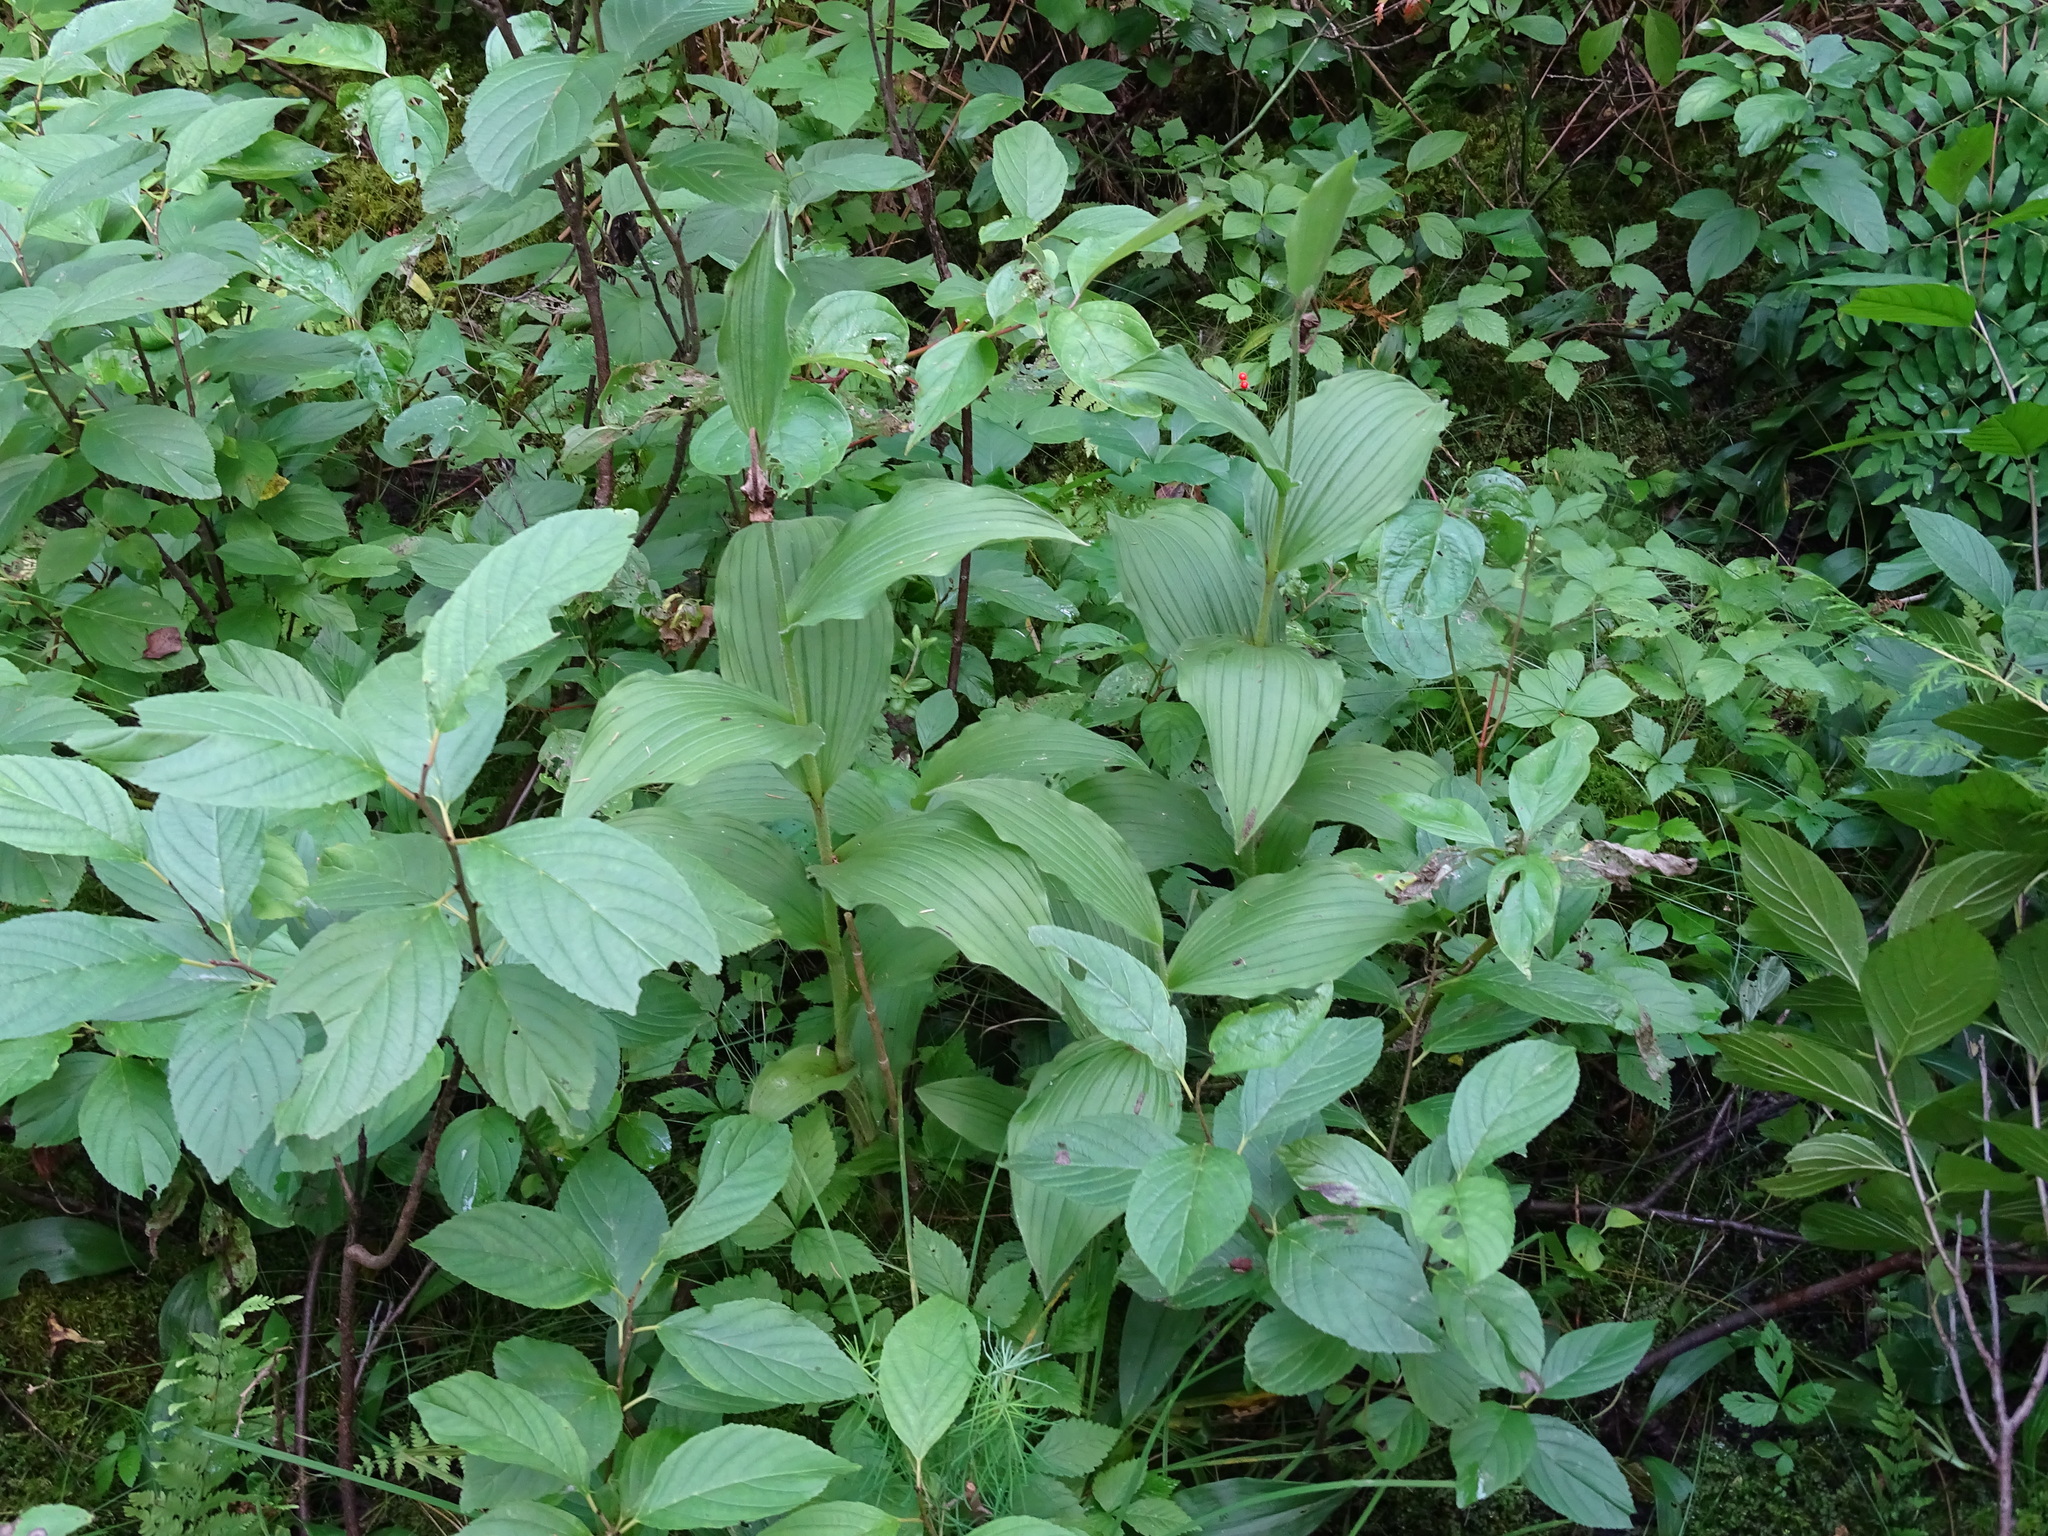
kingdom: Plantae
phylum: Tracheophyta
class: Liliopsida
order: Asparagales
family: Orchidaceae
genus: Cypripedium
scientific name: Cypripedium reginae
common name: Queen lady's-slipper
